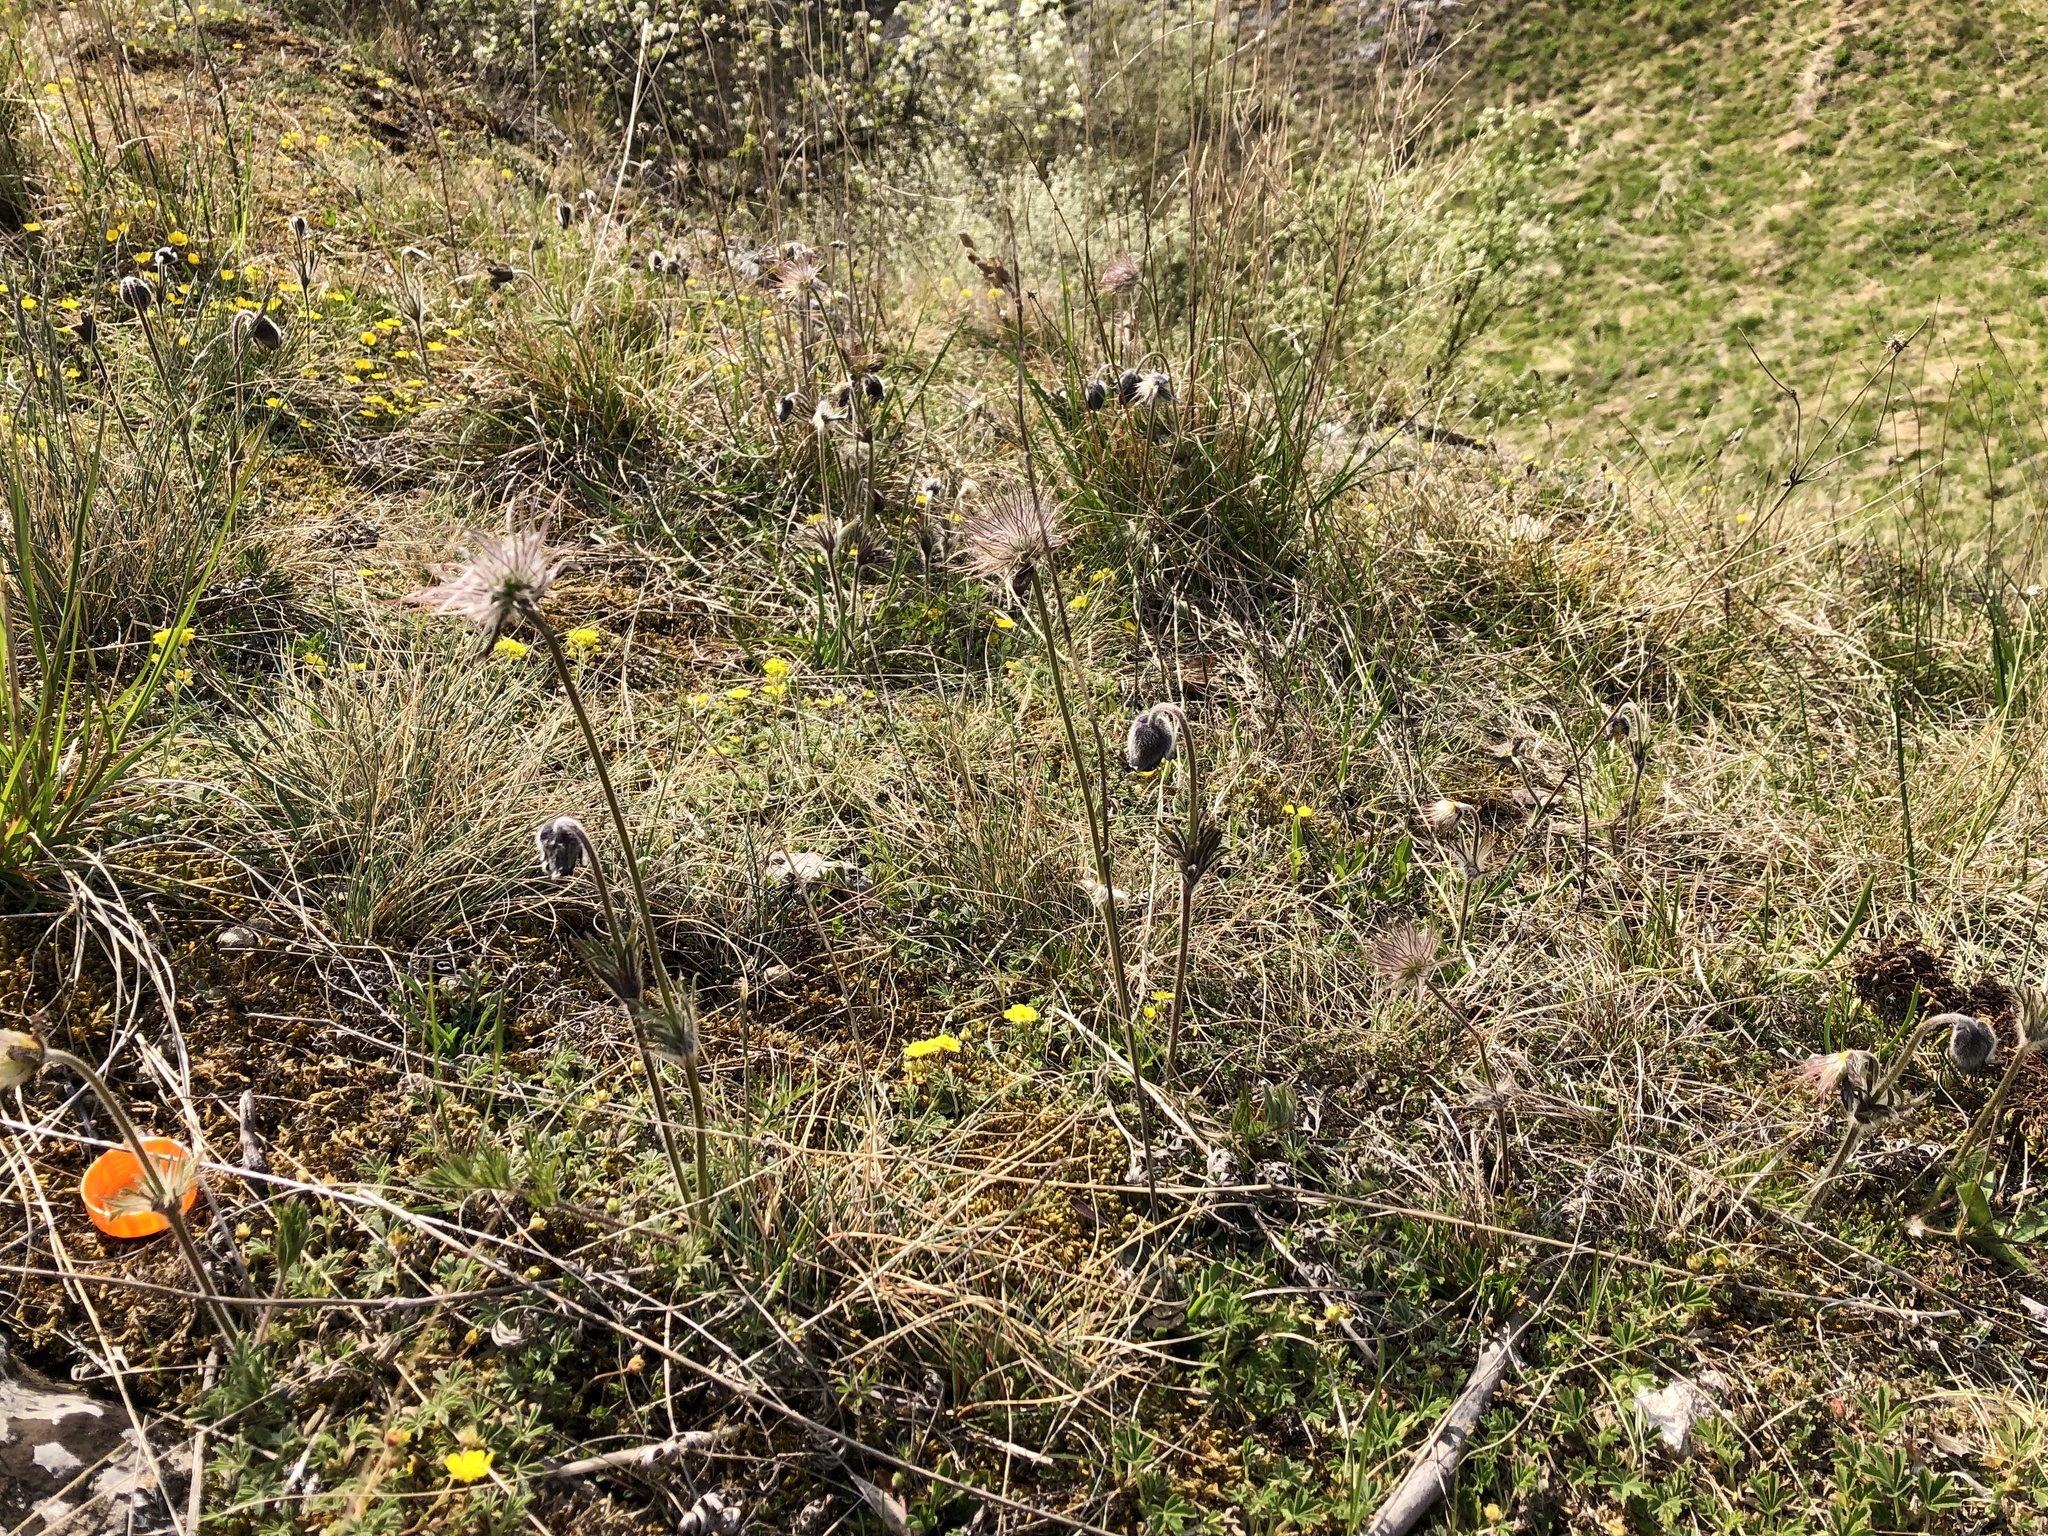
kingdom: Plantae
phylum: Tracheophyta
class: Magnoliopsida
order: Ranunculales
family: Ranunculaceae
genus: Pulsatilla
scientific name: Pulsatilla pratensis
